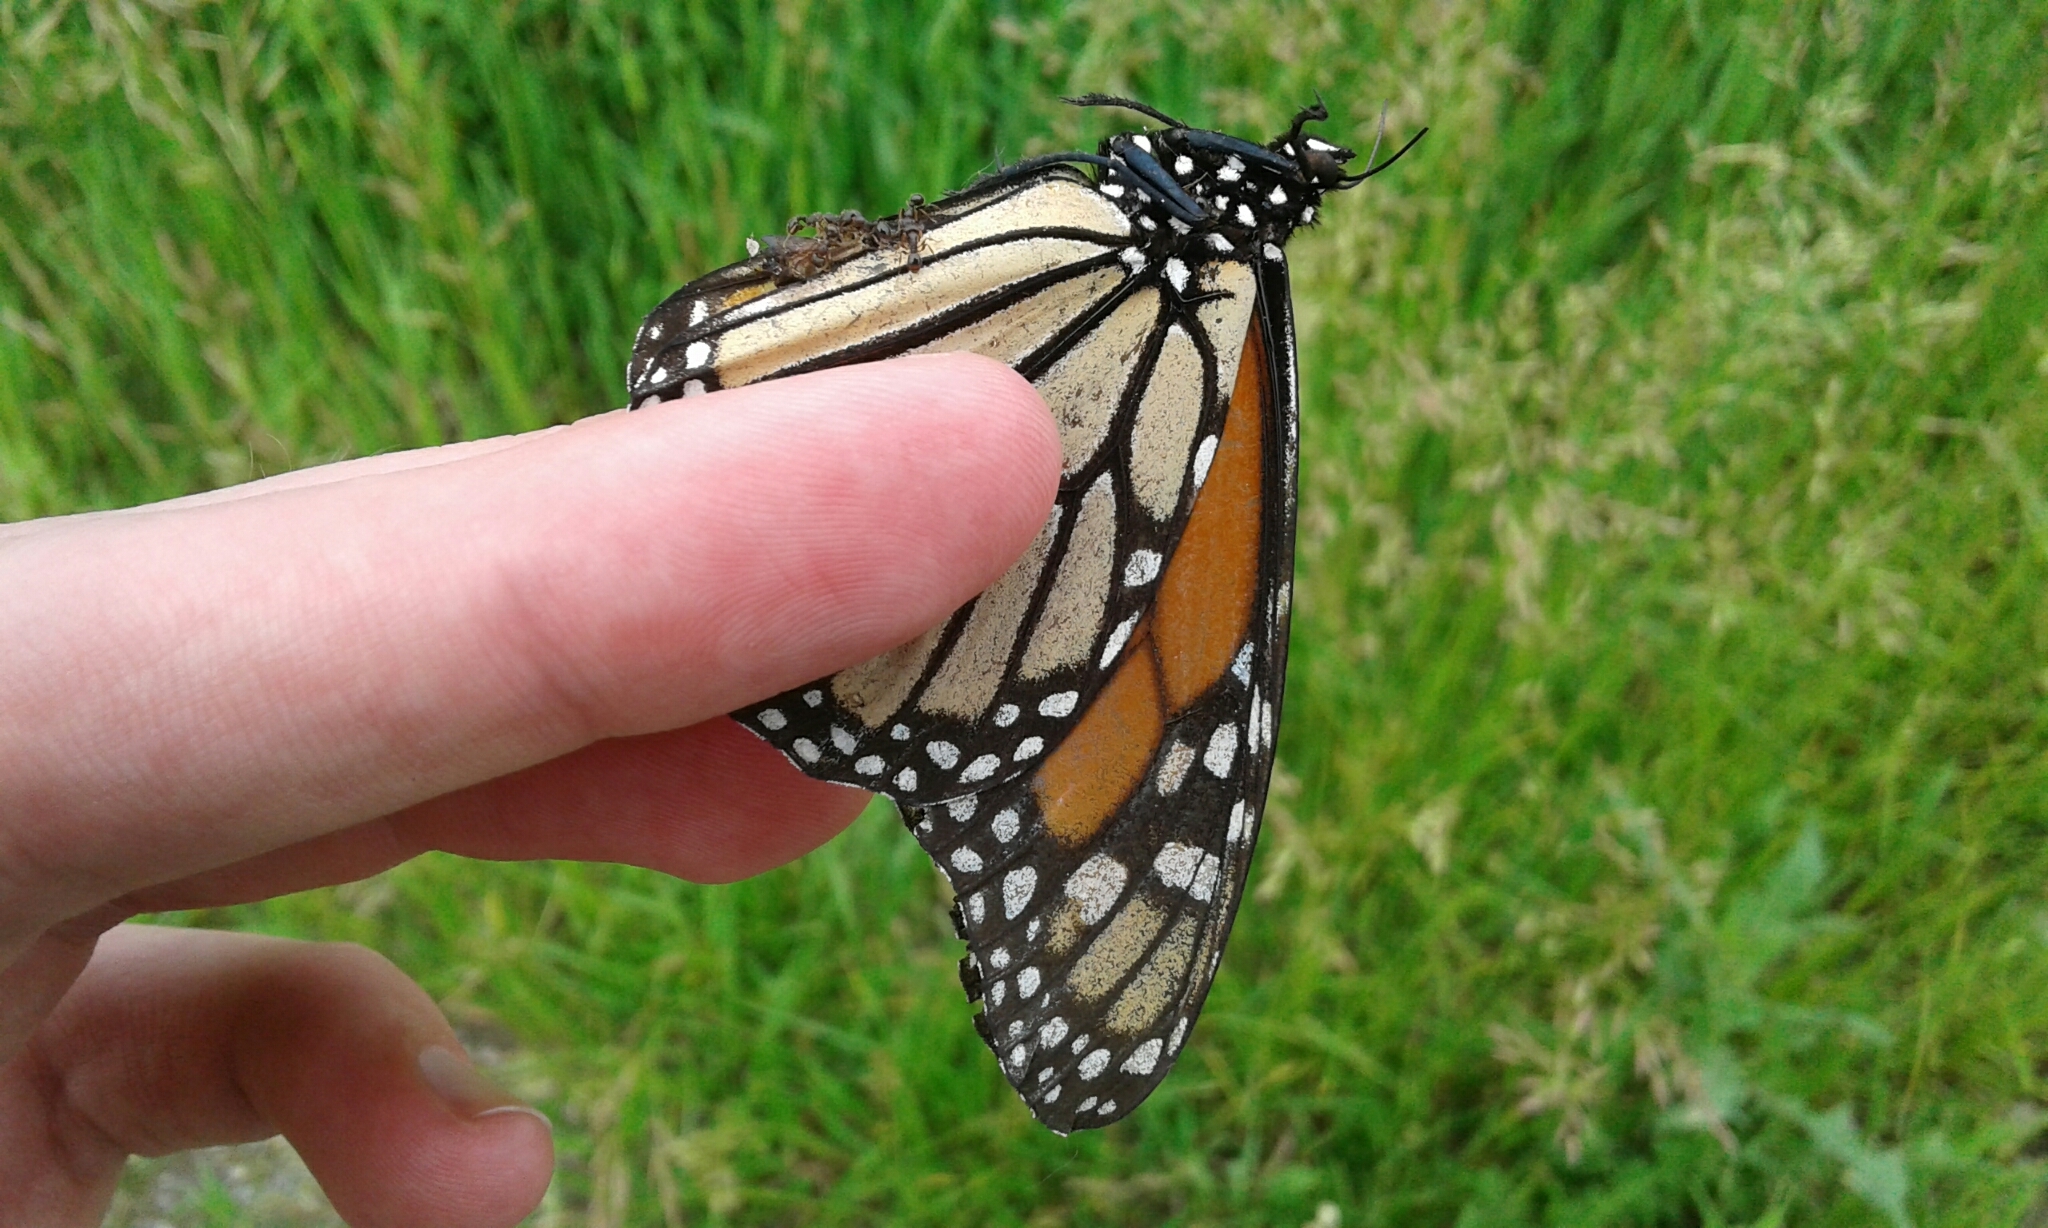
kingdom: Animalia
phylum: Arthropoda
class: Insecta
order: Lepidoptera
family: Nymphalidae
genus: Danaus
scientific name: Danaus plexippus
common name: Monarch
